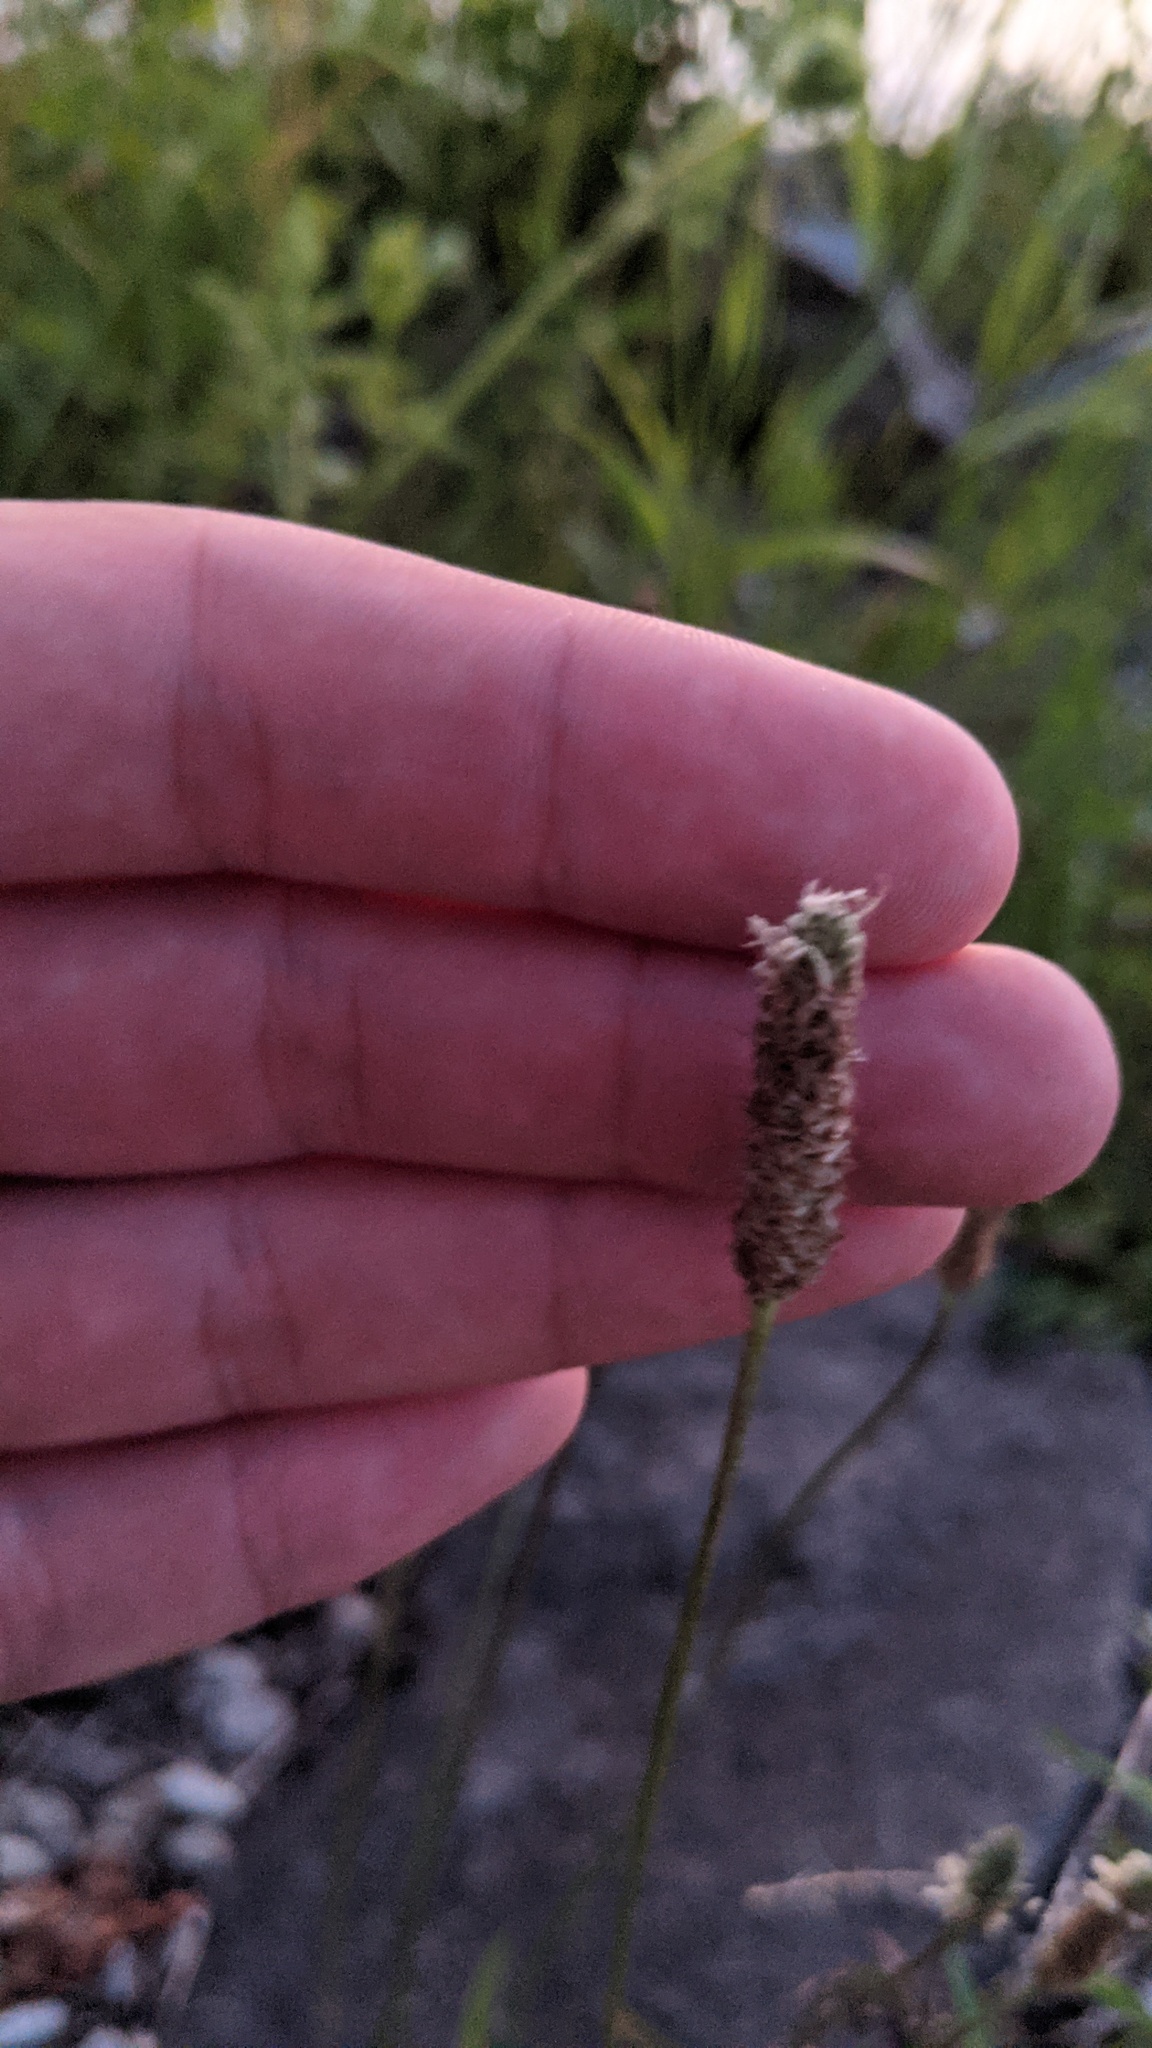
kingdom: Plantae
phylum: Tracheophyta
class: Magnoliopsida
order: Lamiales
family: Plantaginaceae
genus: Plantago
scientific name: Plantago lanceolata
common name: Ribwort plantain
